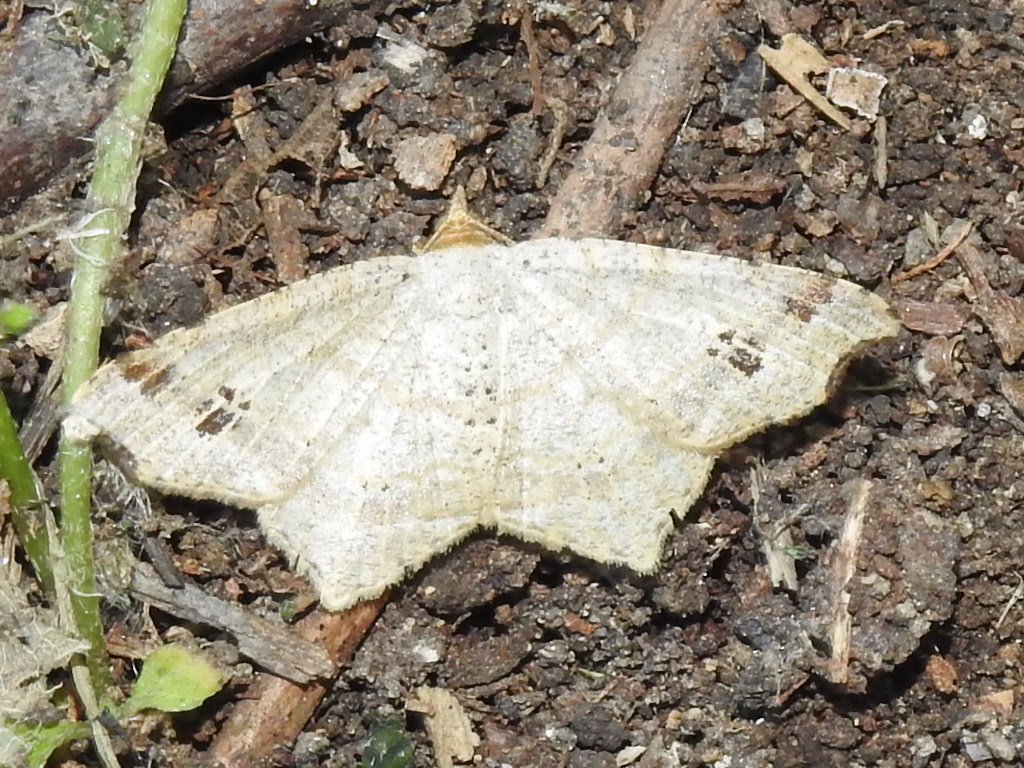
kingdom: Animalia
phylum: Arthropoda
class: Insecta
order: Lepidoptera
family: Geometridae
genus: Macaria
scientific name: Macaria aemulataria
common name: Common angle
